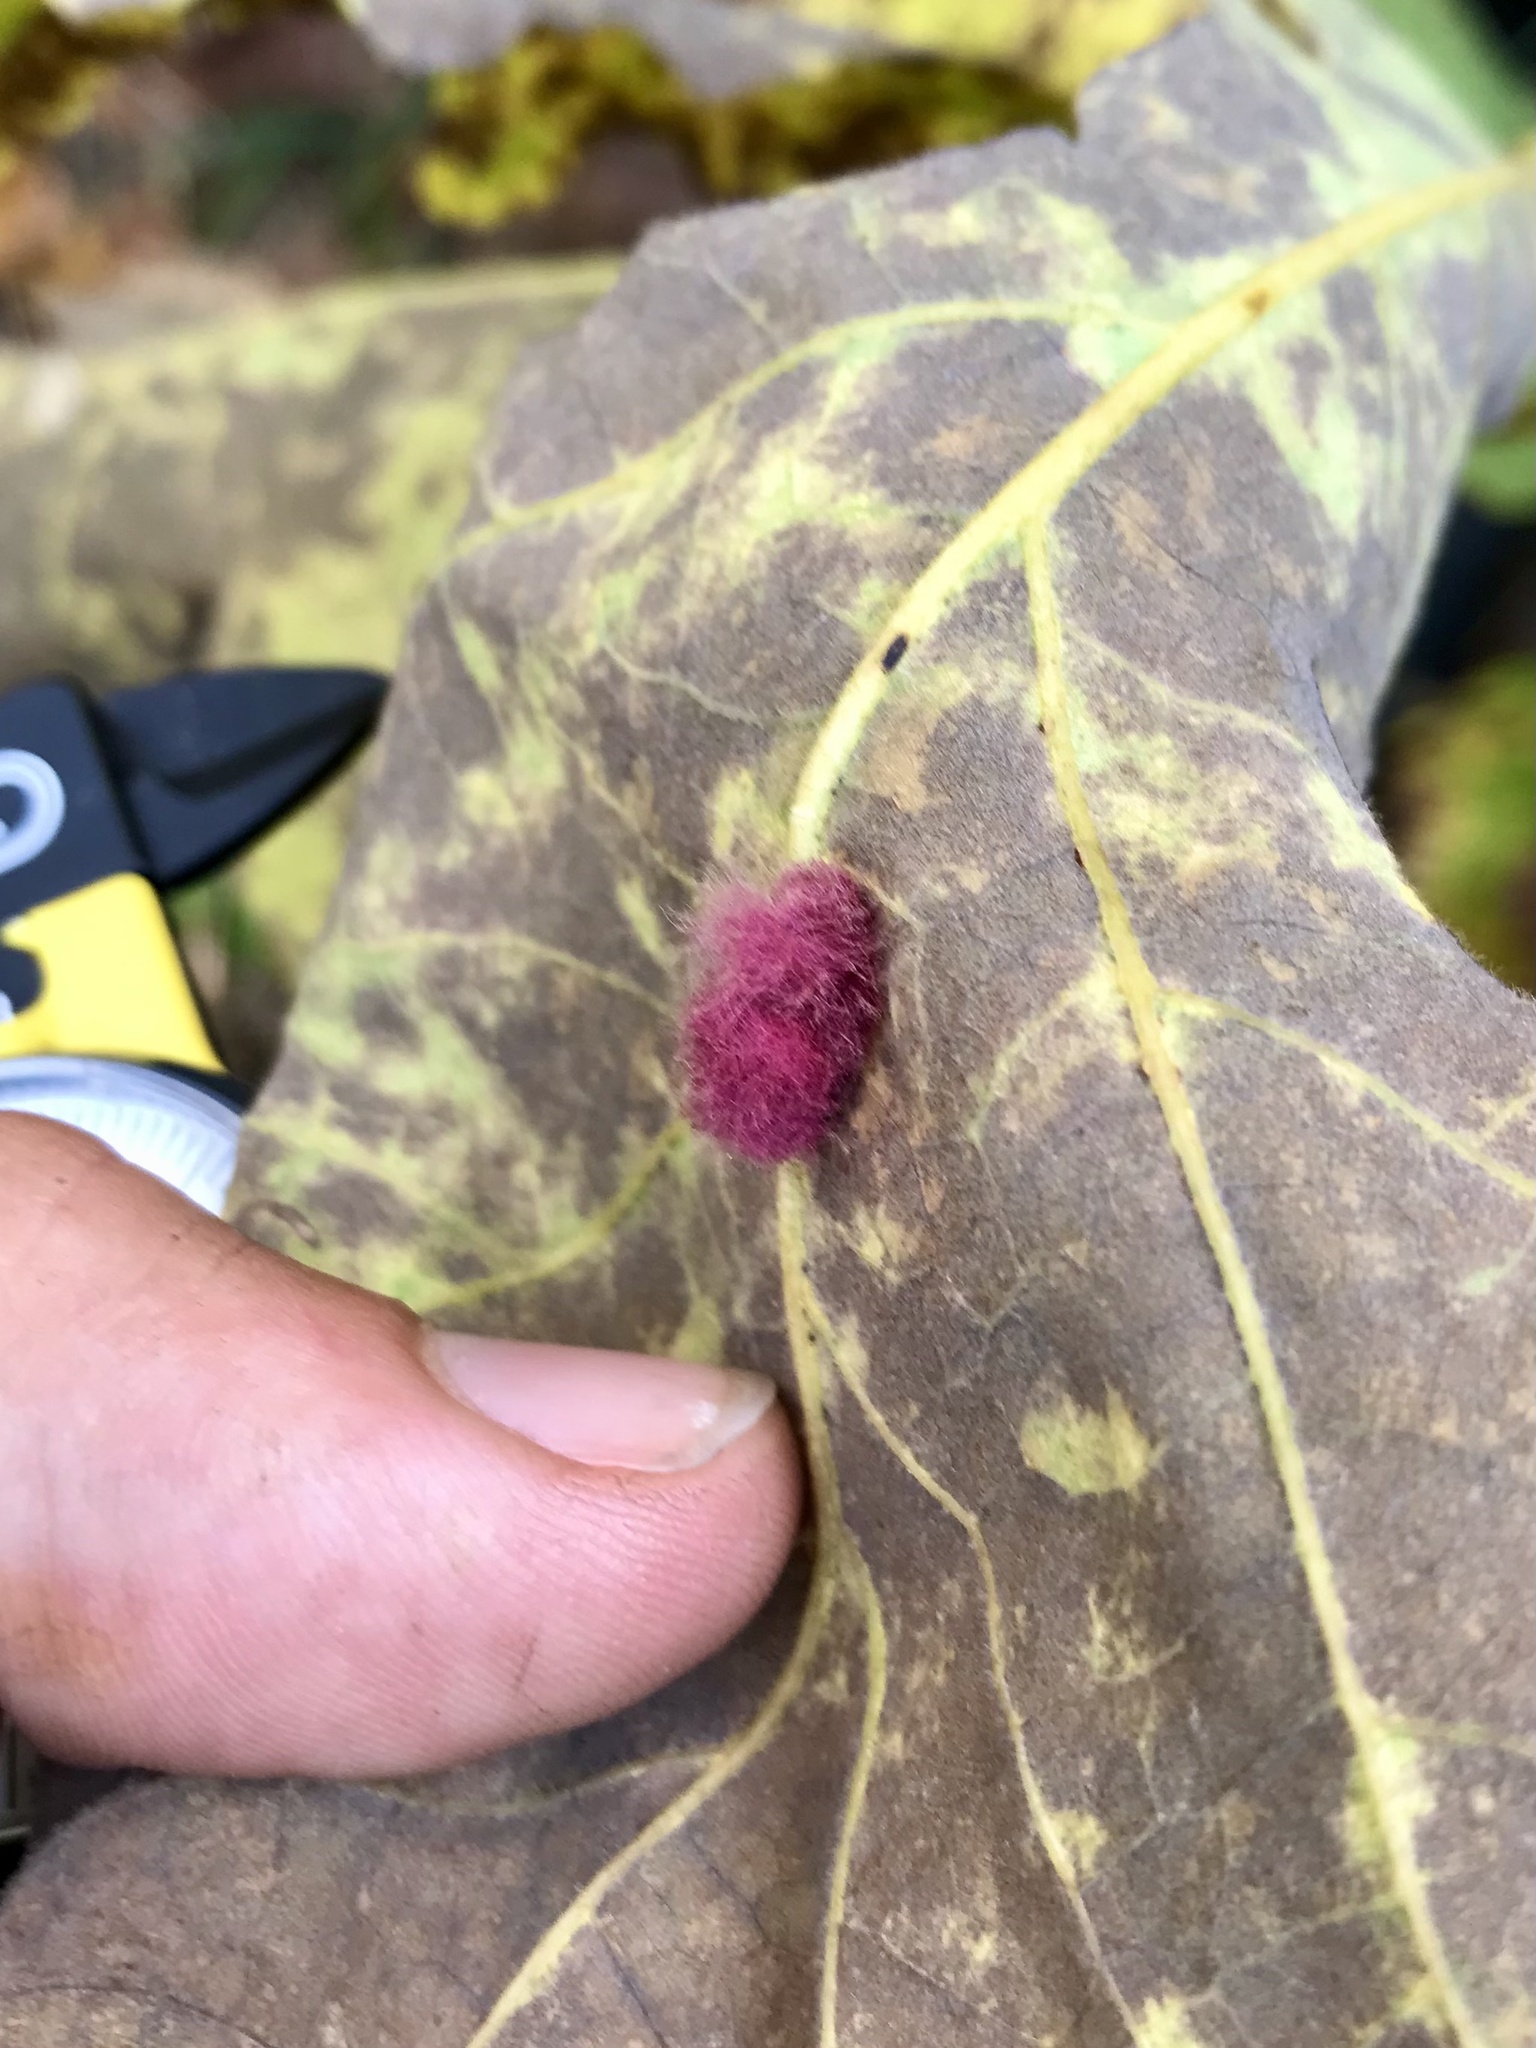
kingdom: Animalia
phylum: Arthropoda
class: Insecta
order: Hymenoptera
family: Cynipidae
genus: Andricus
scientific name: Andricus Druon ignotum
